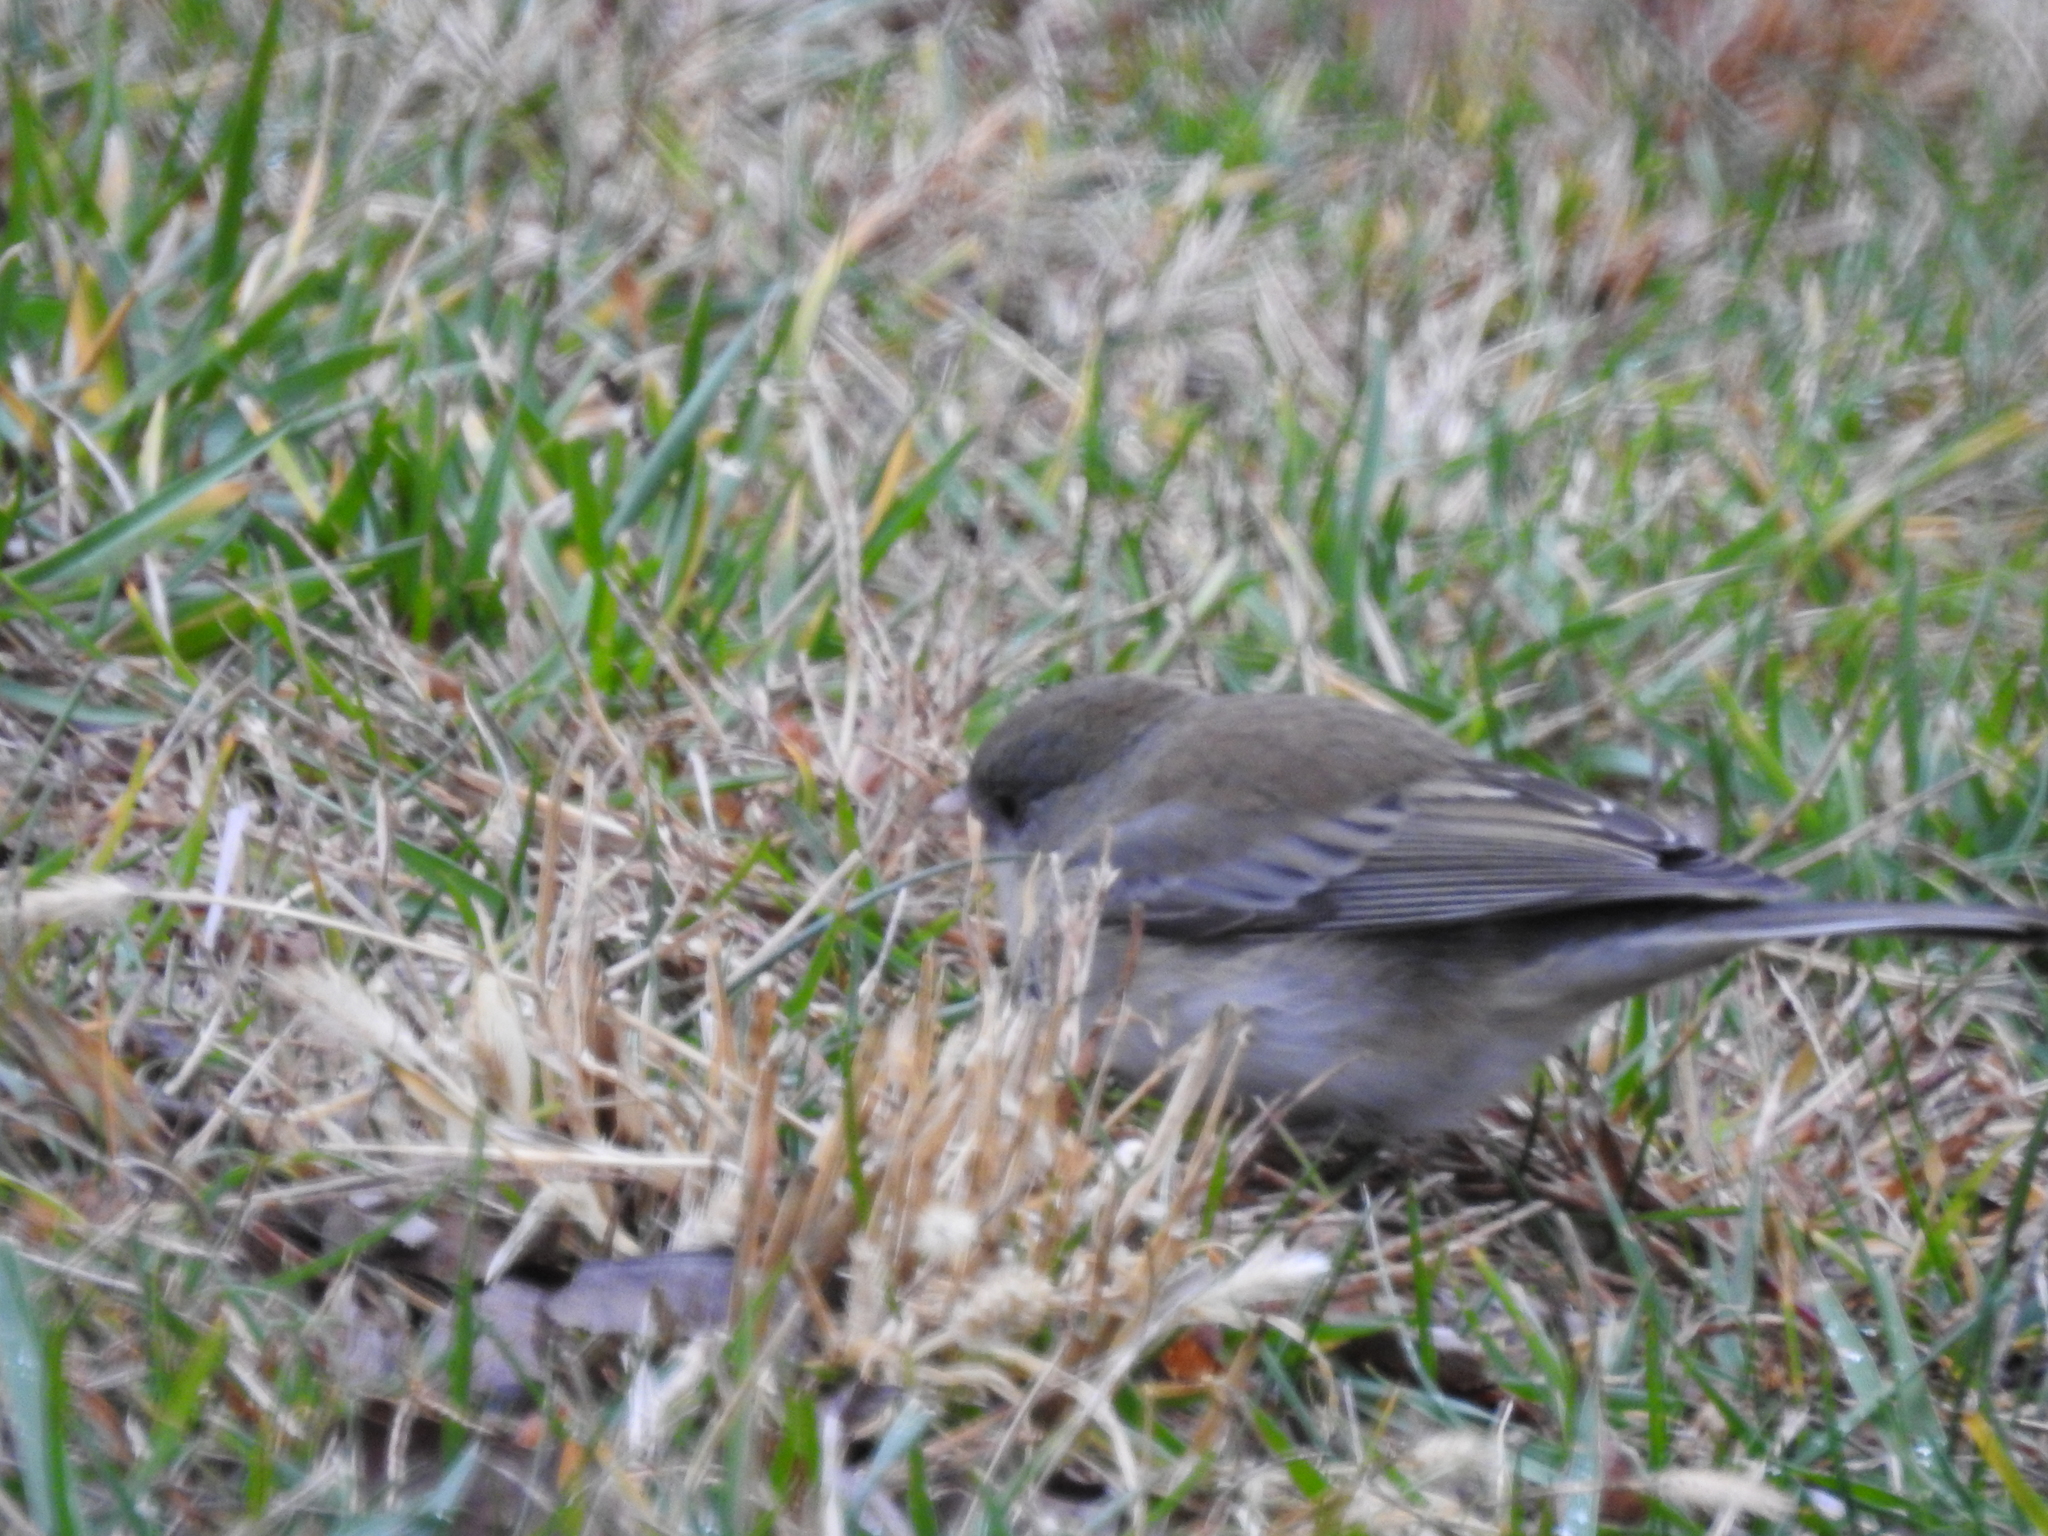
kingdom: Animalia
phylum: Chordata
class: Aves
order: Passeriformes
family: Passerellidae
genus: Junco
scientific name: Junco hyemalis
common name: Dark-eyed junco
